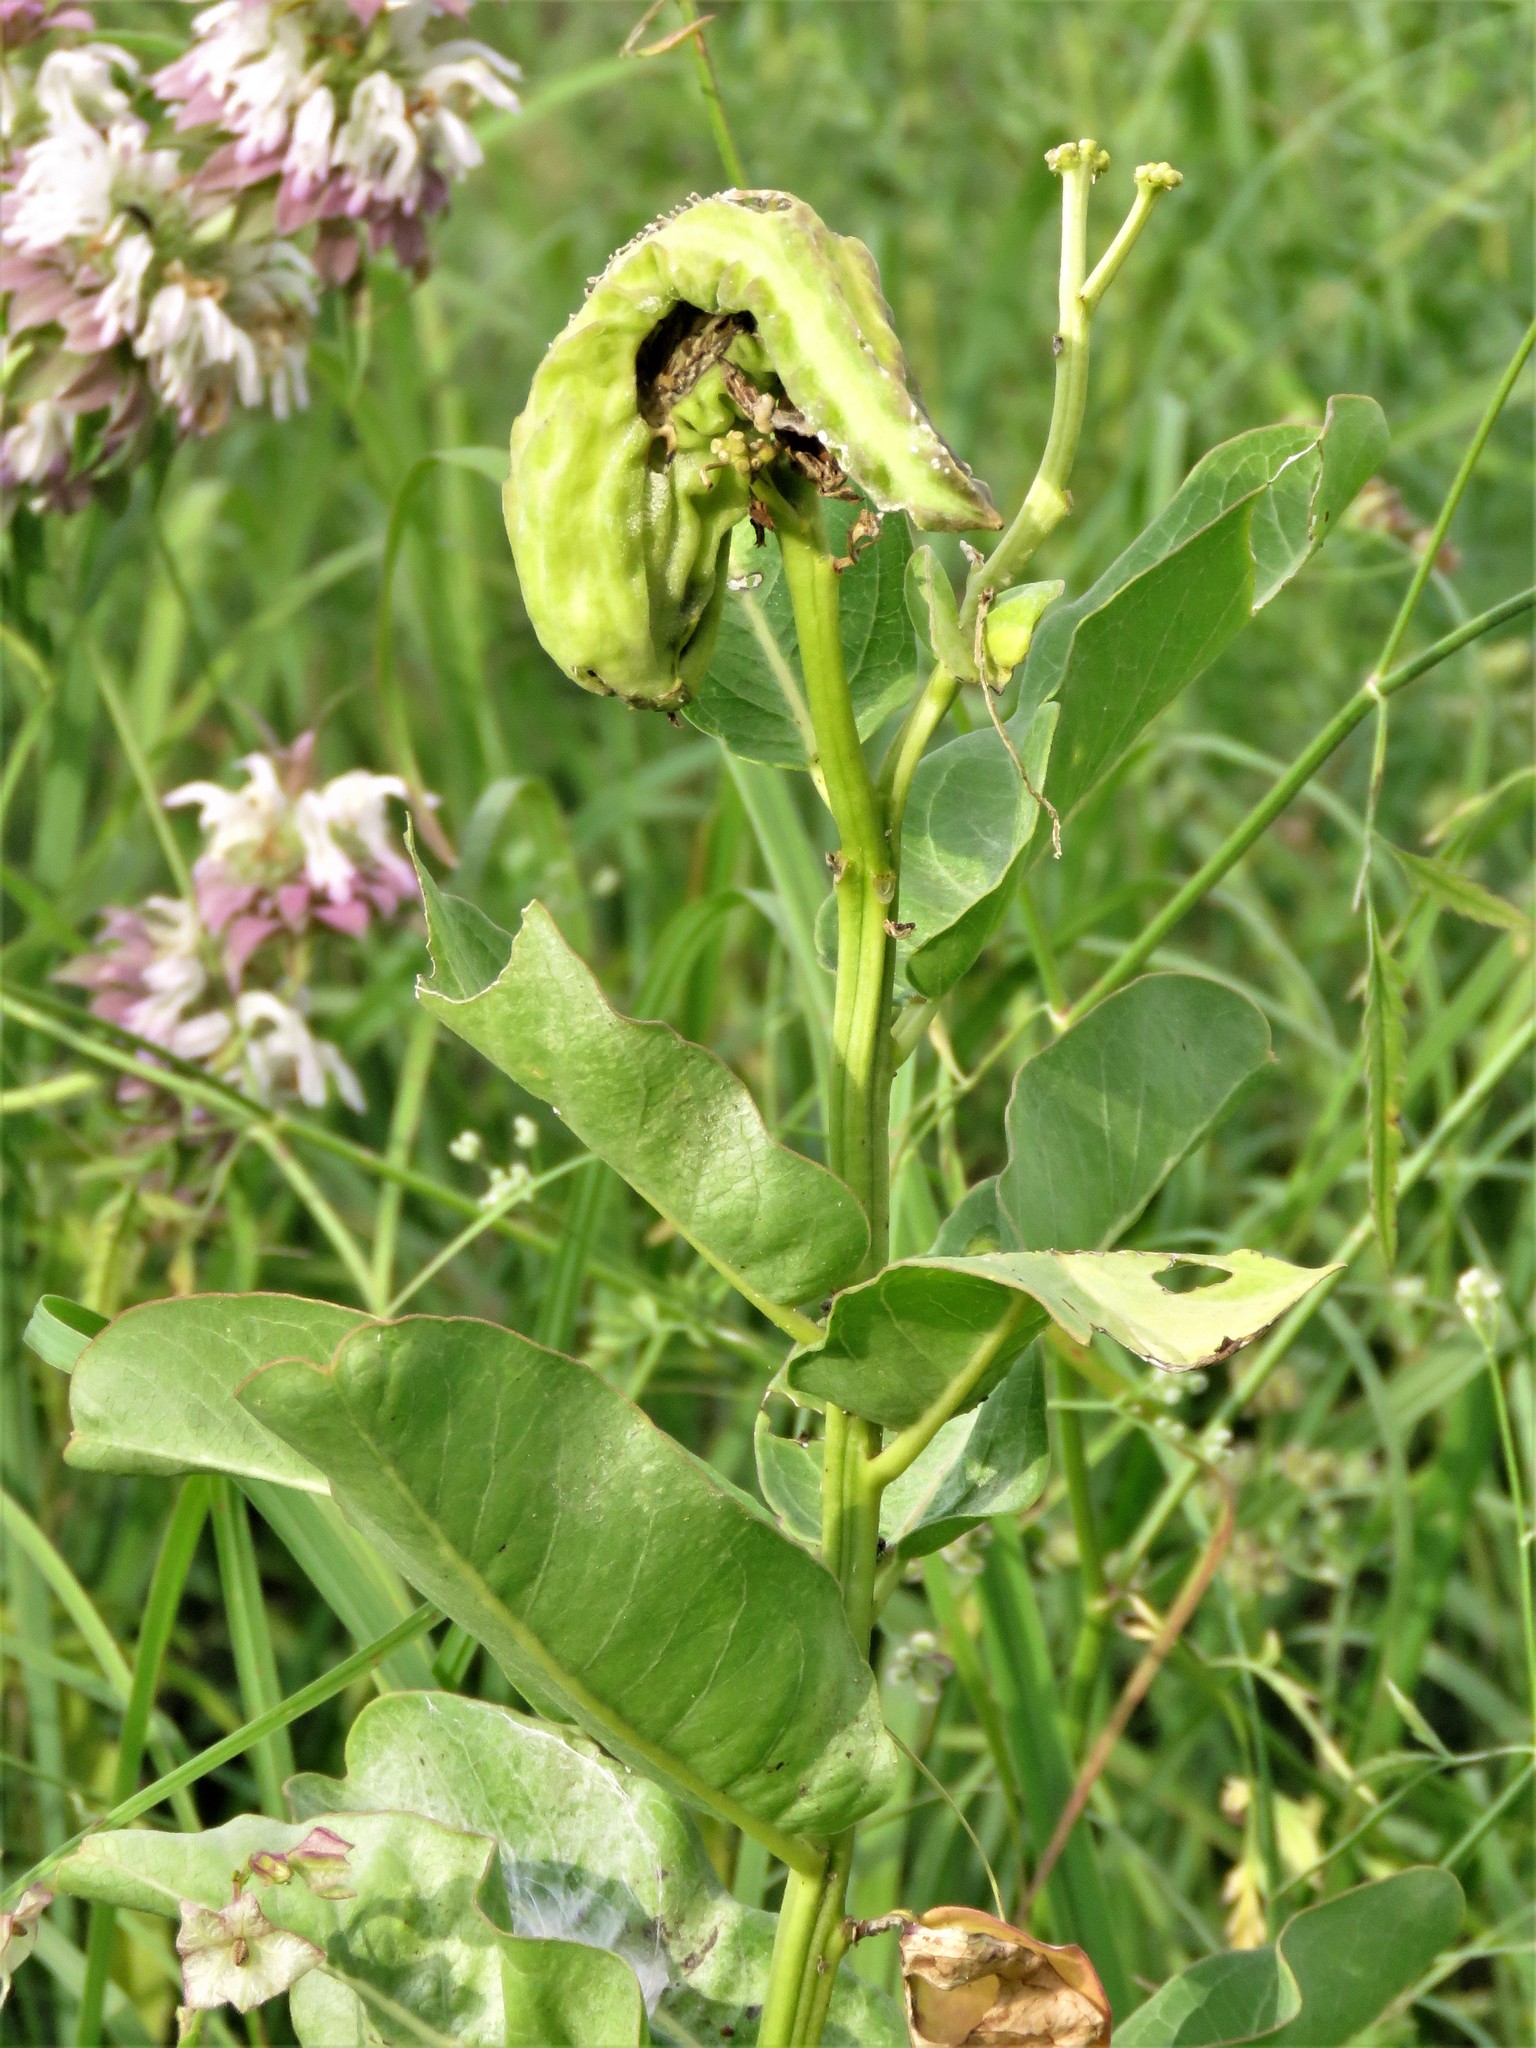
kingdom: Plantae
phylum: Tracheophyta
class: Magnoliopsida
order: Gentianales
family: Apocynaceae
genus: Asclepias
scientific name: Asclepias viridis
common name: Antelope-horns
